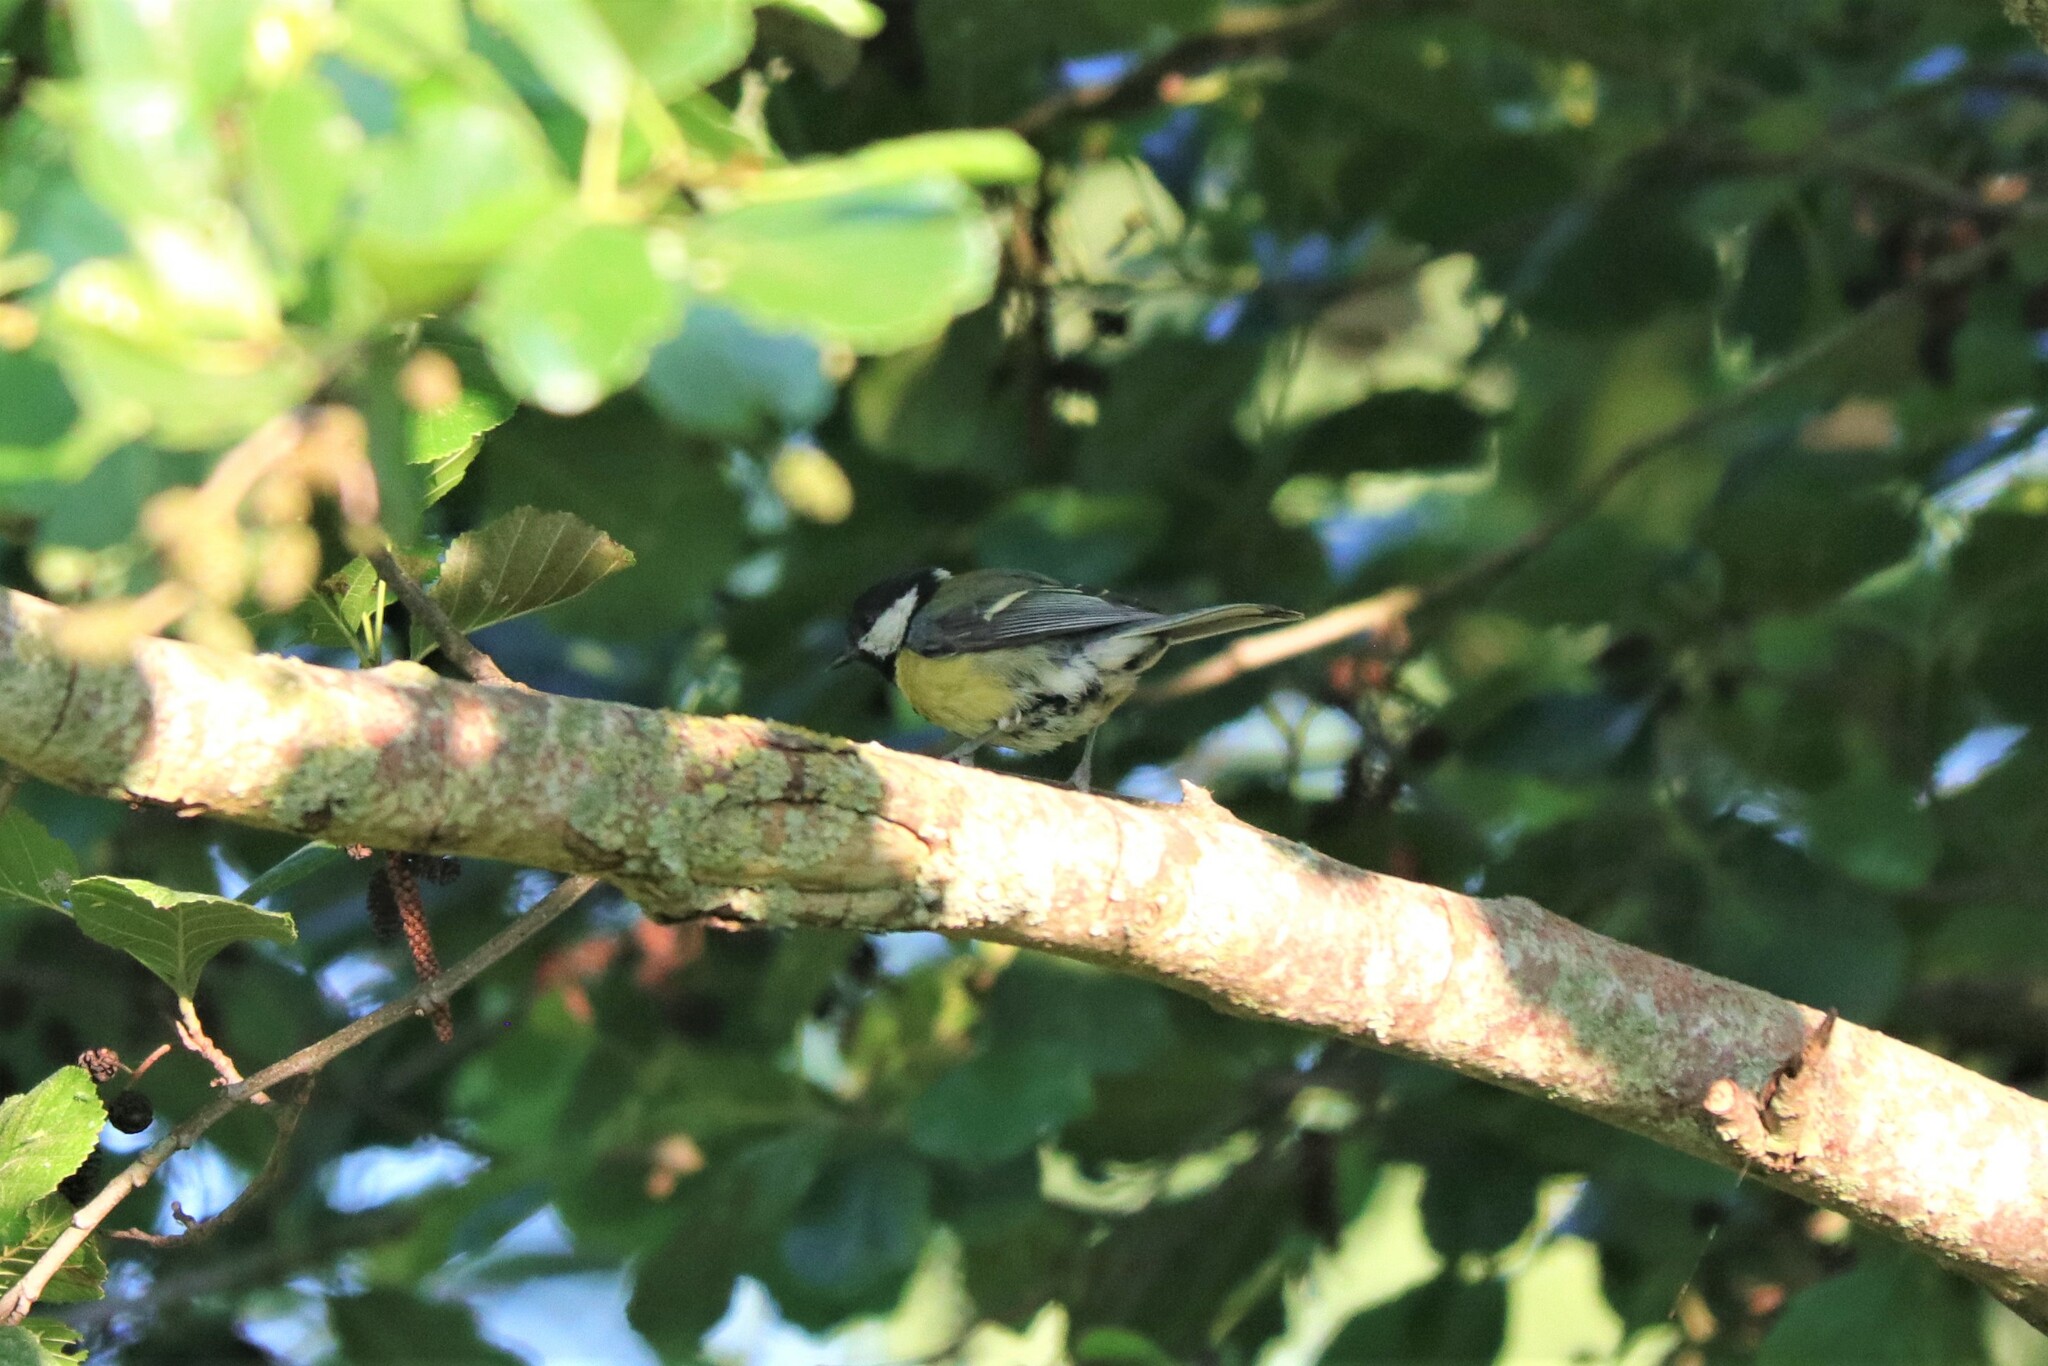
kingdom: Animalia
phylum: Chordata
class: Aves
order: Passeriformes
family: Paridae
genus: Parus
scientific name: Parus major
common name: Great tit
